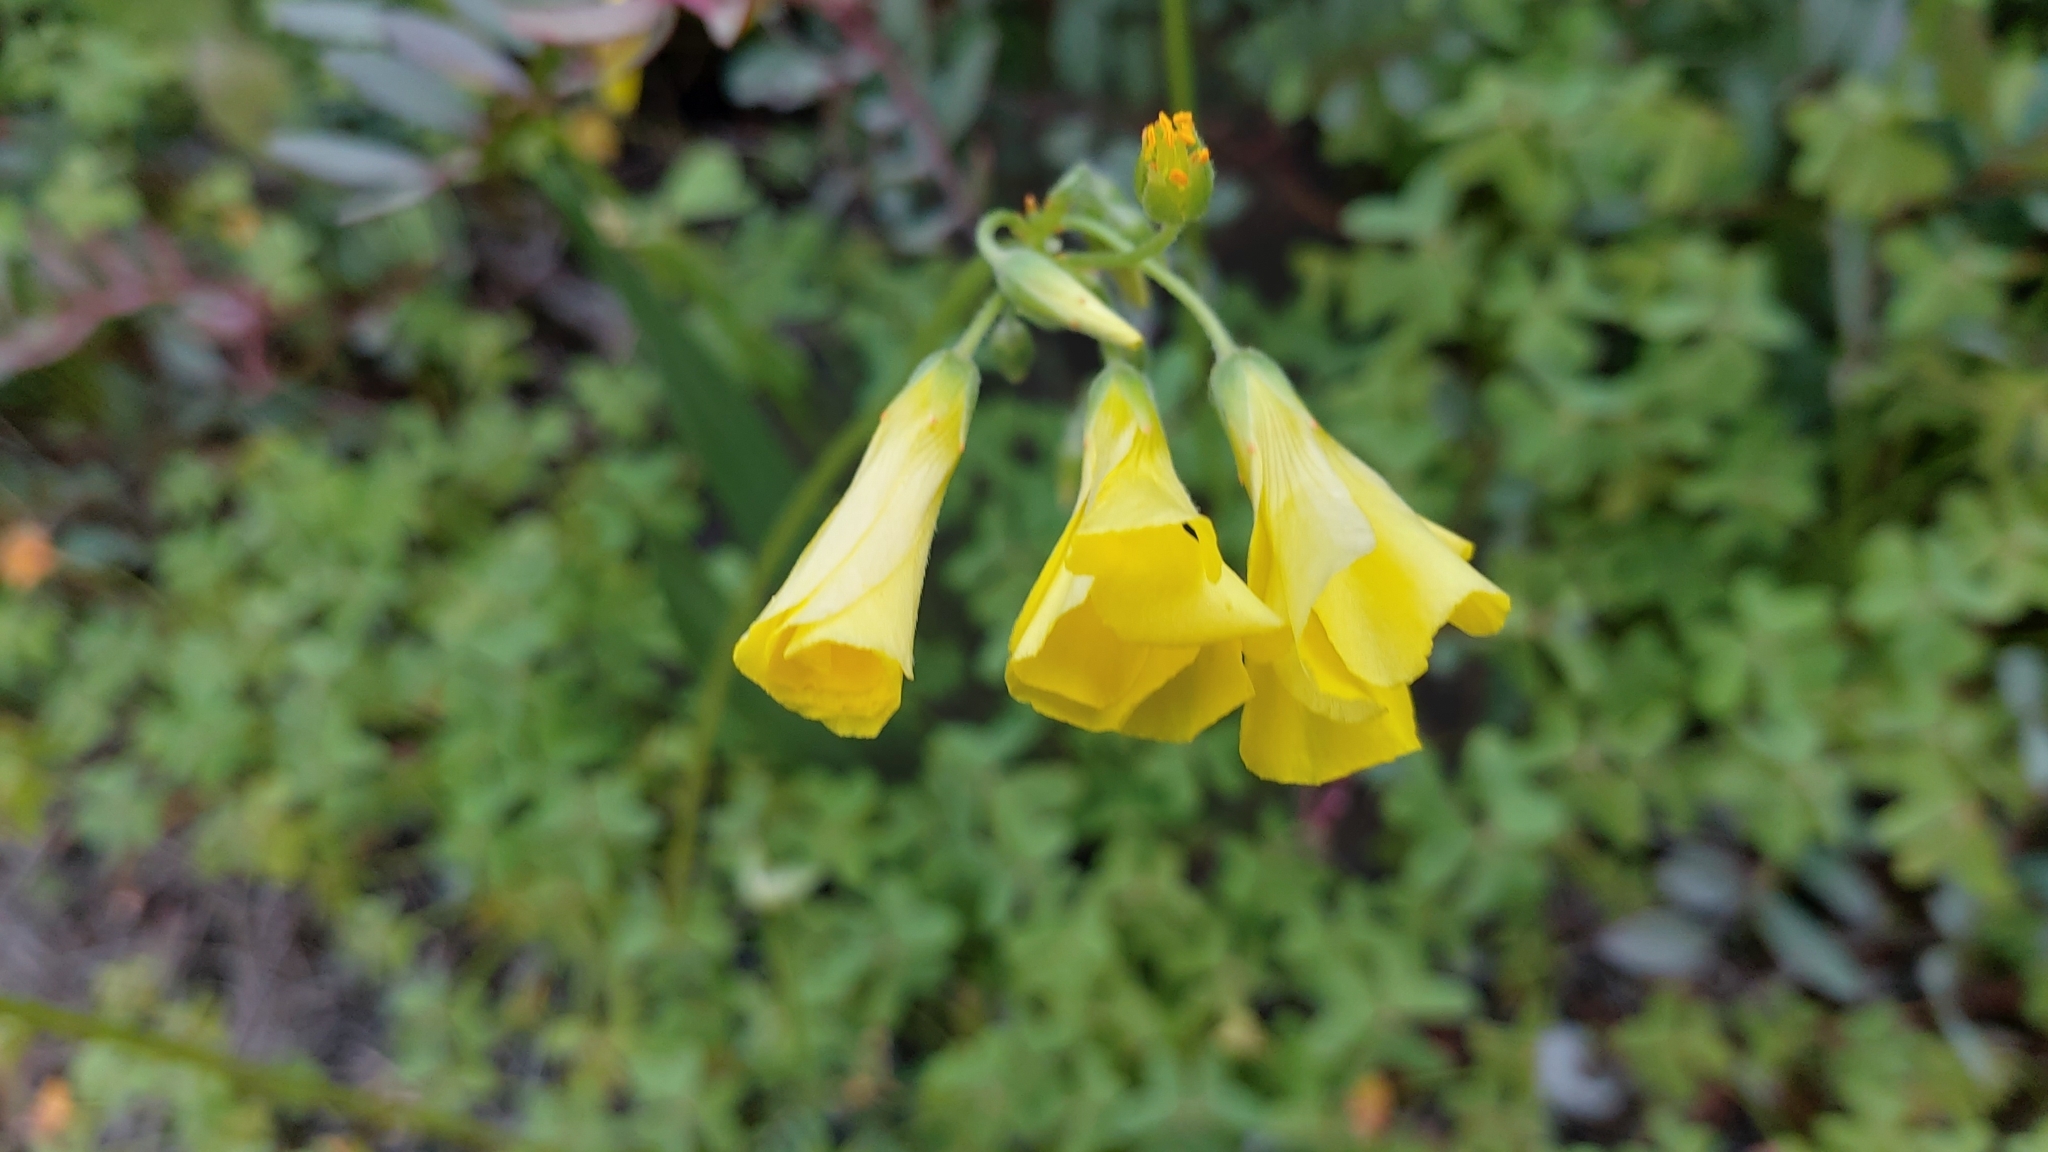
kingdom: Plantae
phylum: Tracheophyta
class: Magnoliopsida
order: Oxalidales
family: Oxalidaceae
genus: Oxalis
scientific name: Oxalis pes-caprae
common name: Bermuda-buttercup
